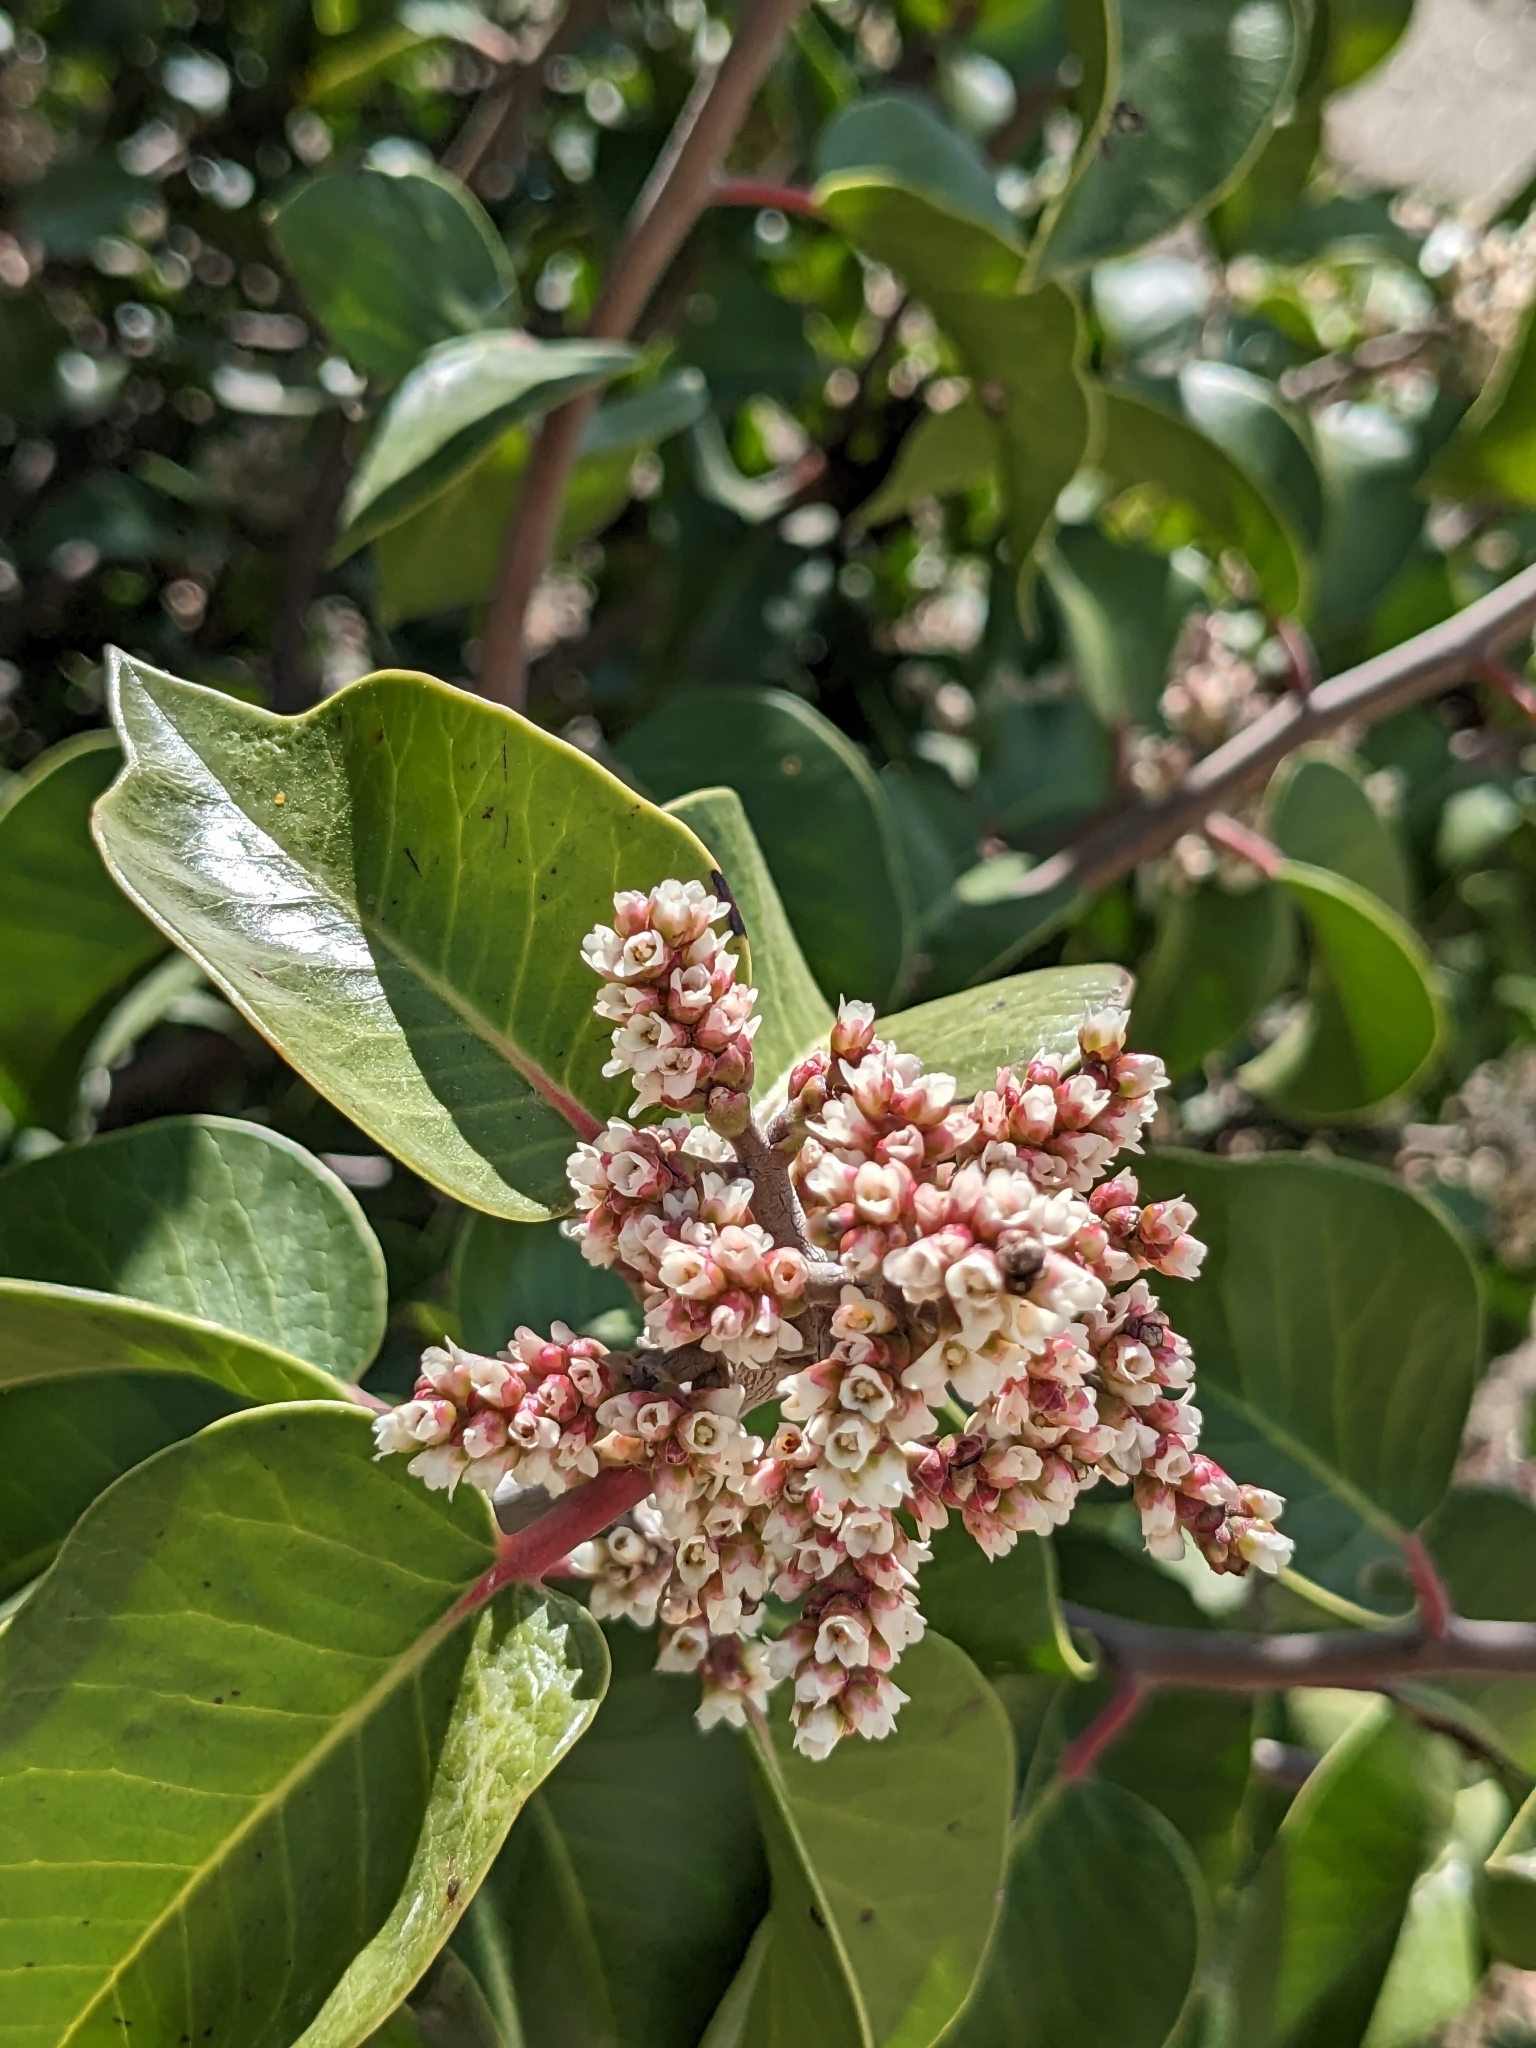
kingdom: Plantae
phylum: Tracheophyta
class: Magnoliopsida
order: Sapindales
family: Anacardiaceae
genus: Rhus
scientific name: Rhus ovata
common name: Sugar sumac
